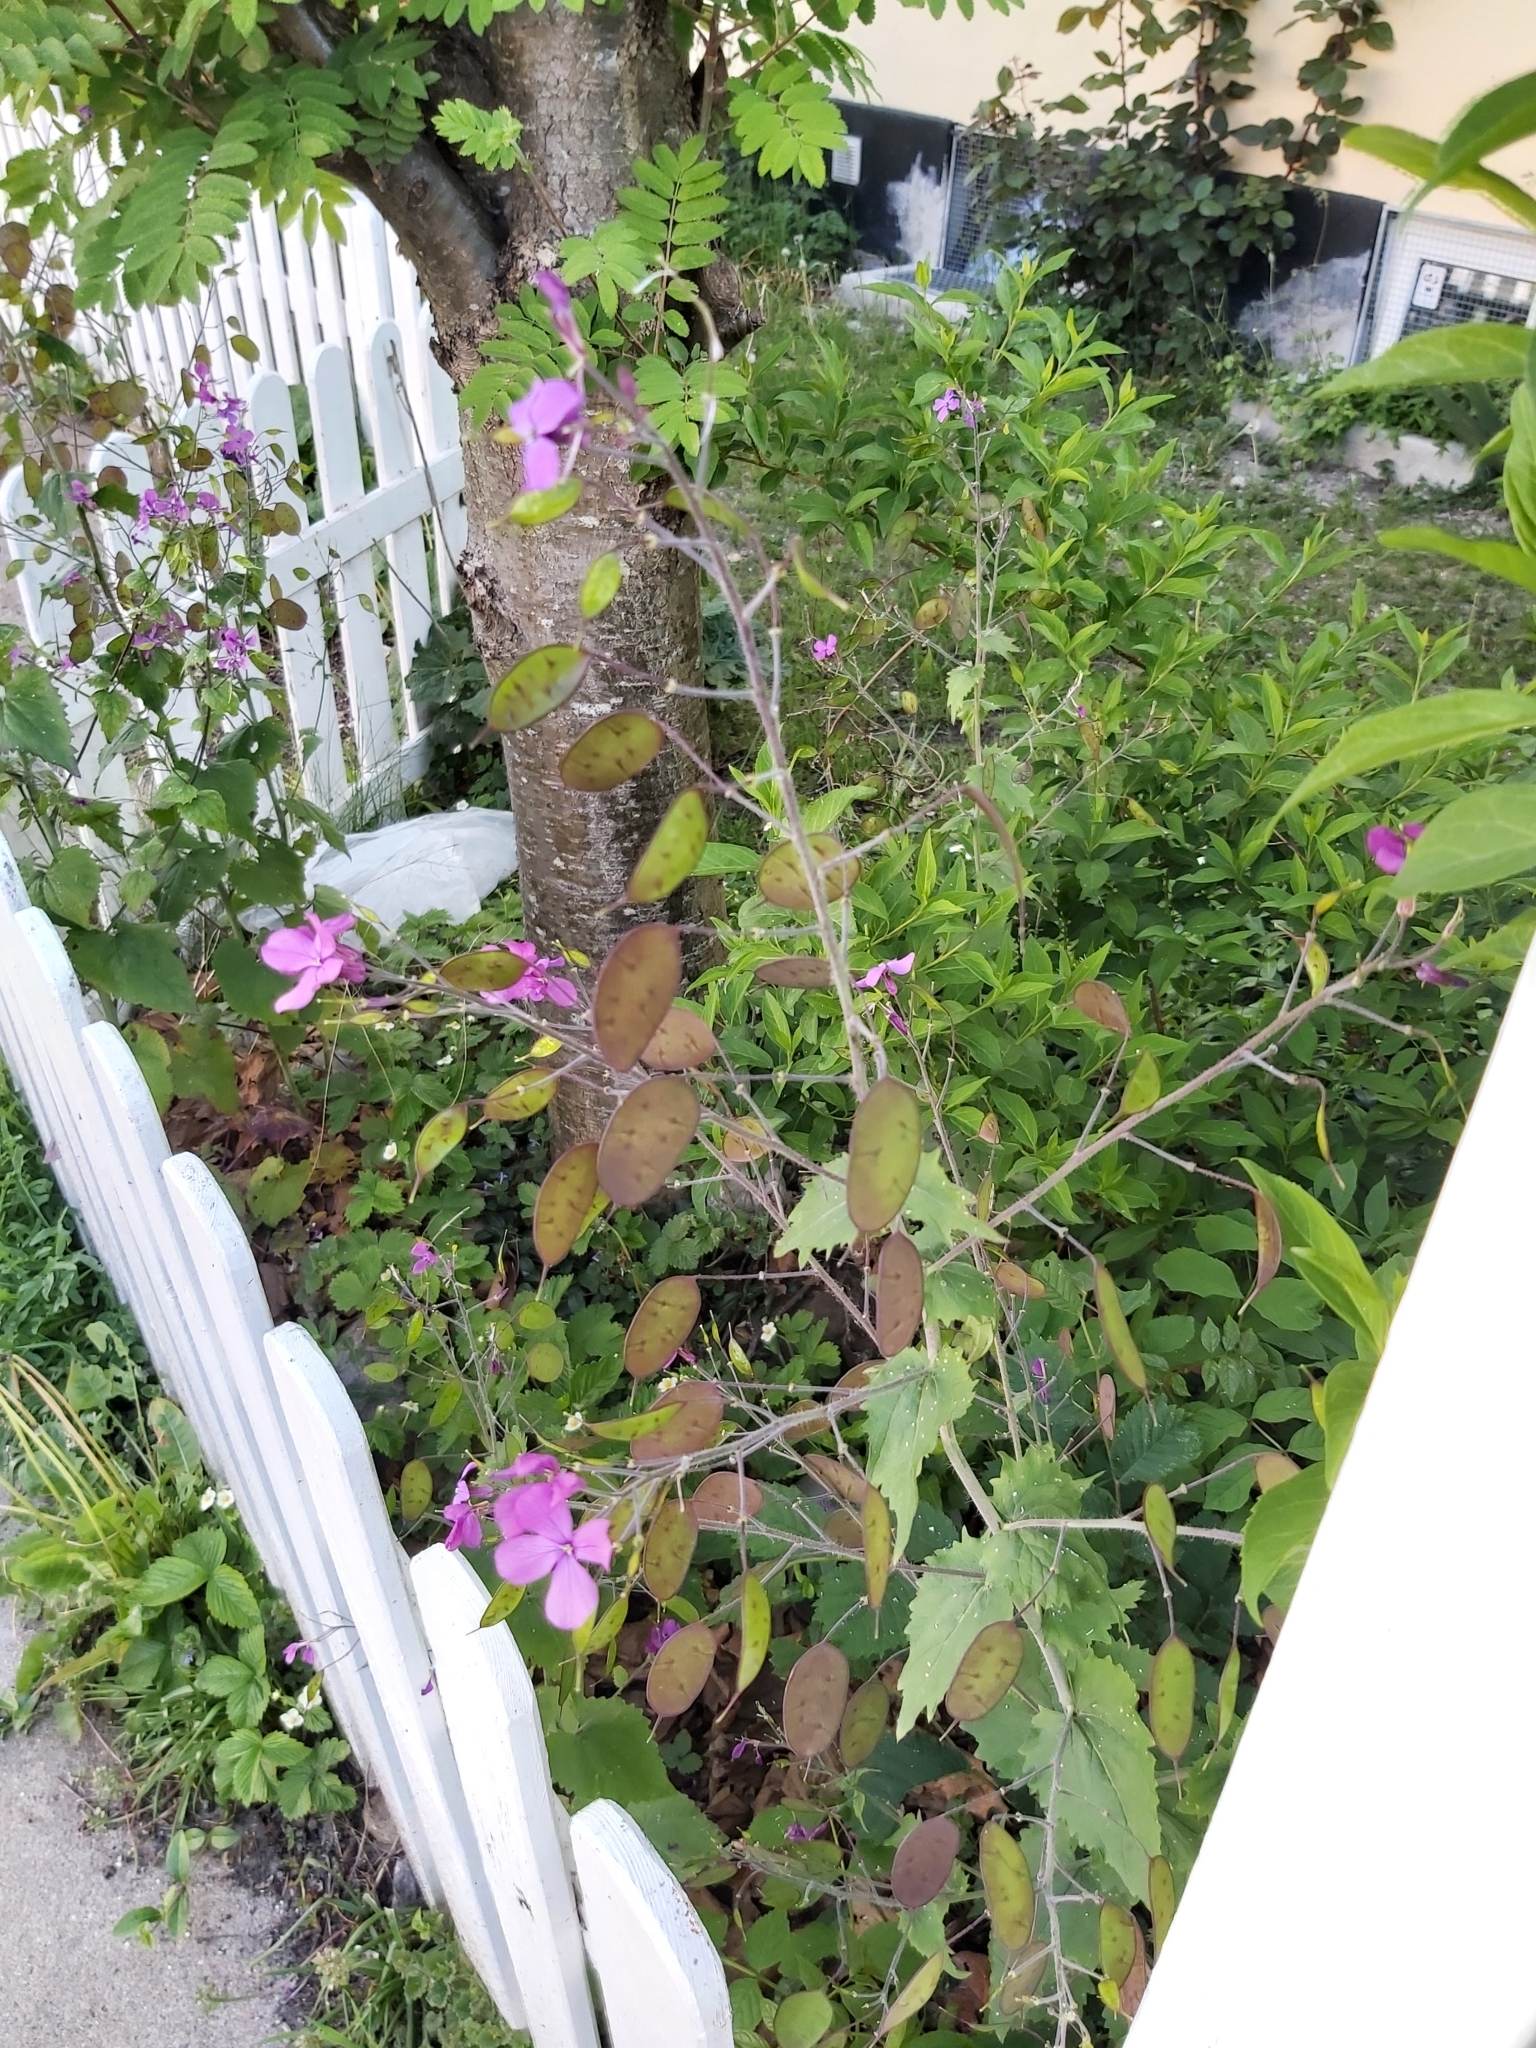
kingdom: Plantae
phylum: Tracheophyta
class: Magnoliopsida
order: Brassicales
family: Brassicaceae
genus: Lunaria
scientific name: Lunaria annua
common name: Honesty
